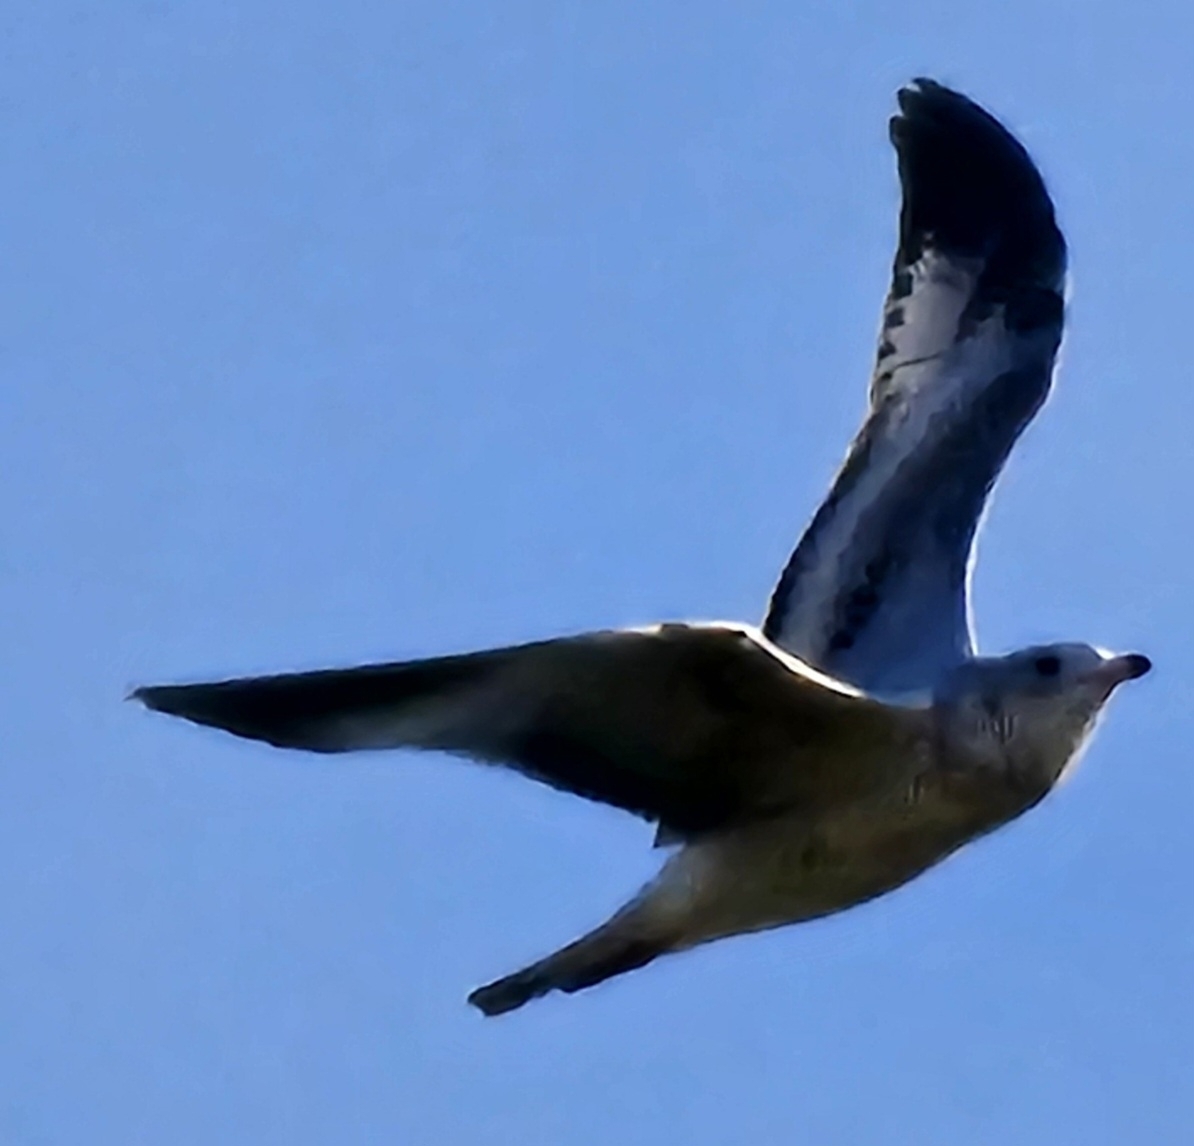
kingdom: Animalia
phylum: Chordata
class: Aves
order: Charadriiformes
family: Laridae
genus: Larus
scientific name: Larus delawarensis
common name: Ring-billed gull
